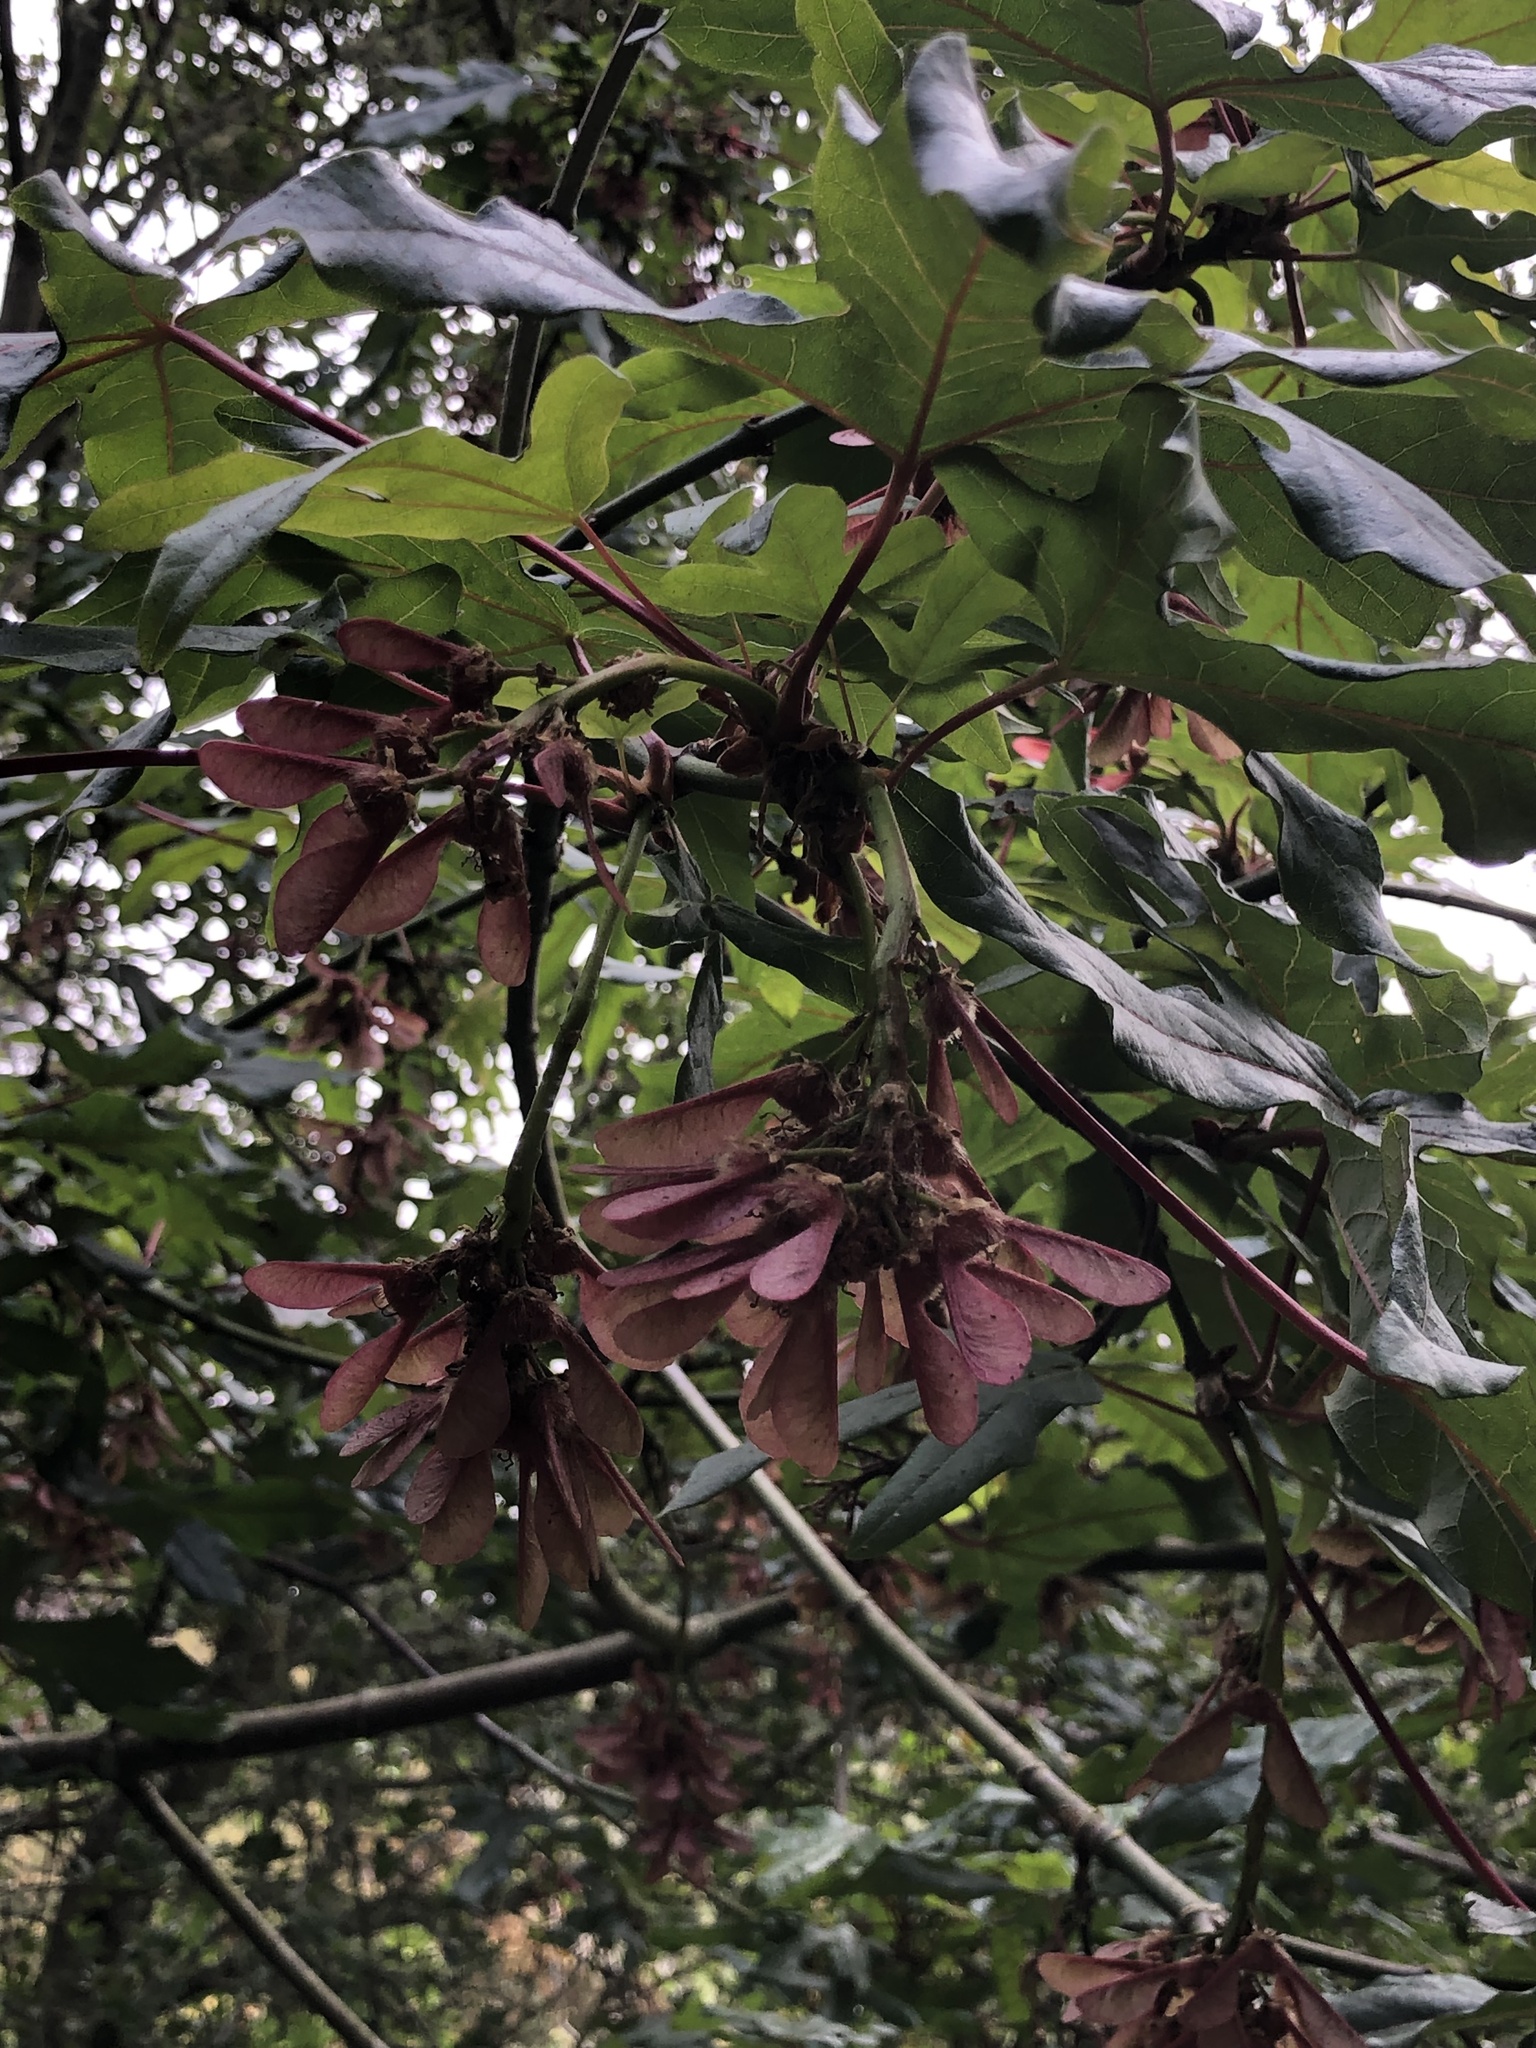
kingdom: Plantae
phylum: Tracheophyta
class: Magnoliopsida
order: Sapindales
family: Sapindaceae
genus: Acer
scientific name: Acer macrophyllum
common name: Oregon maple
